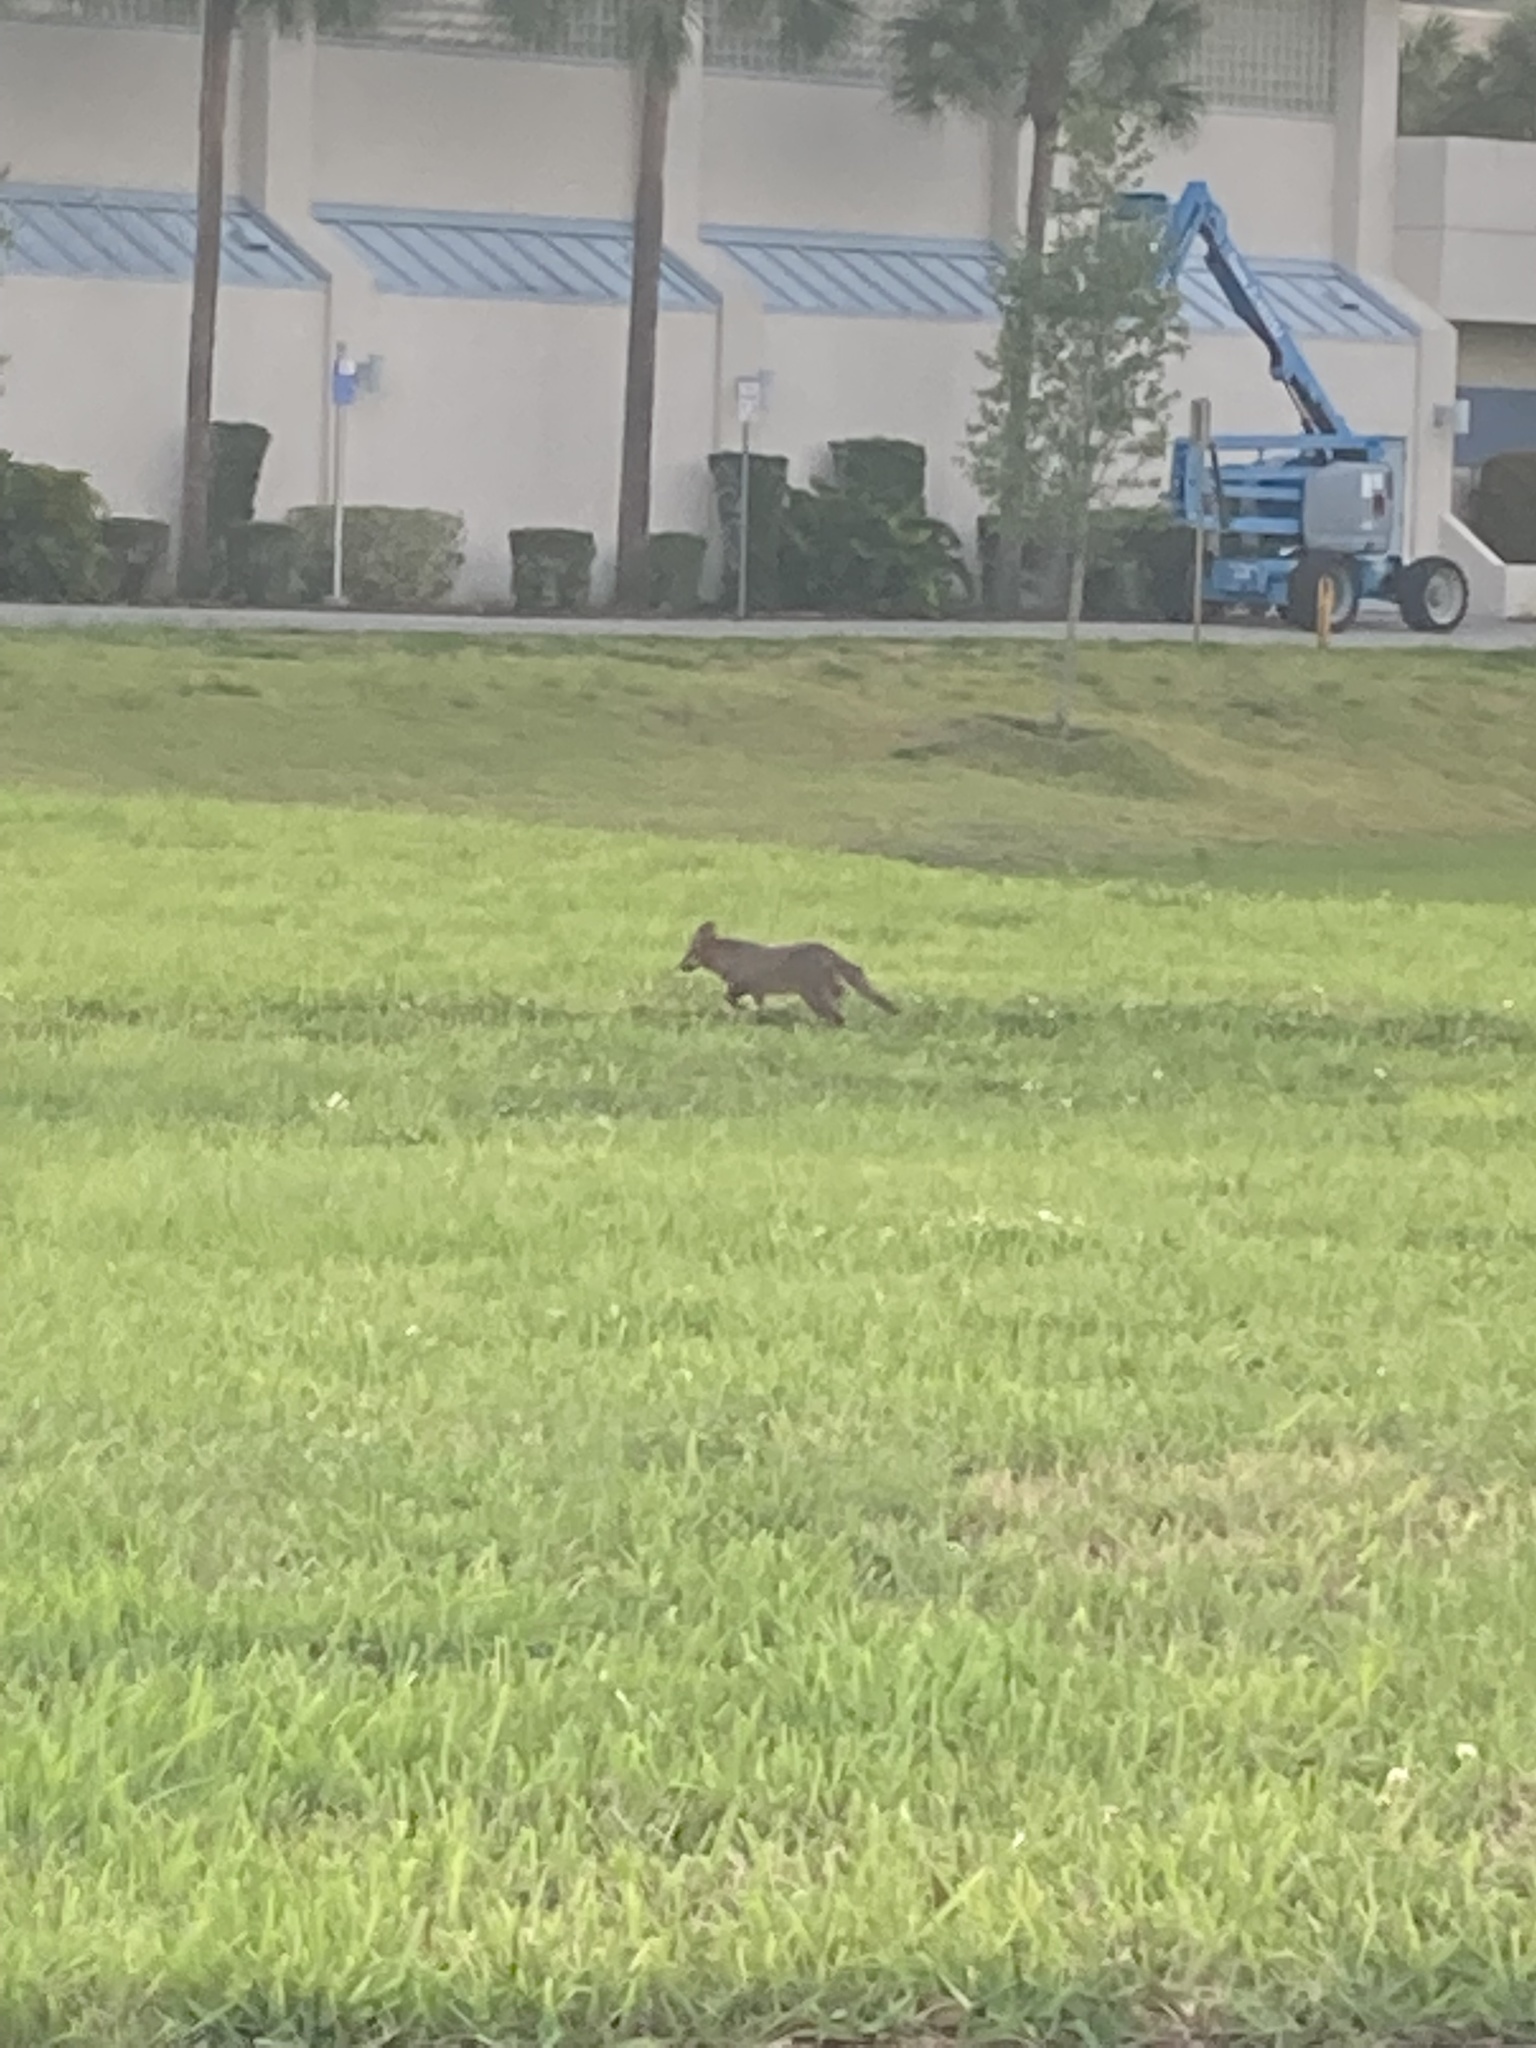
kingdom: Animalia
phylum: Chordata
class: Mammalia
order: Carnivora
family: Canidae
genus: Urocyon
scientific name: Urocyon cinereoargenteus
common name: Gray fox
